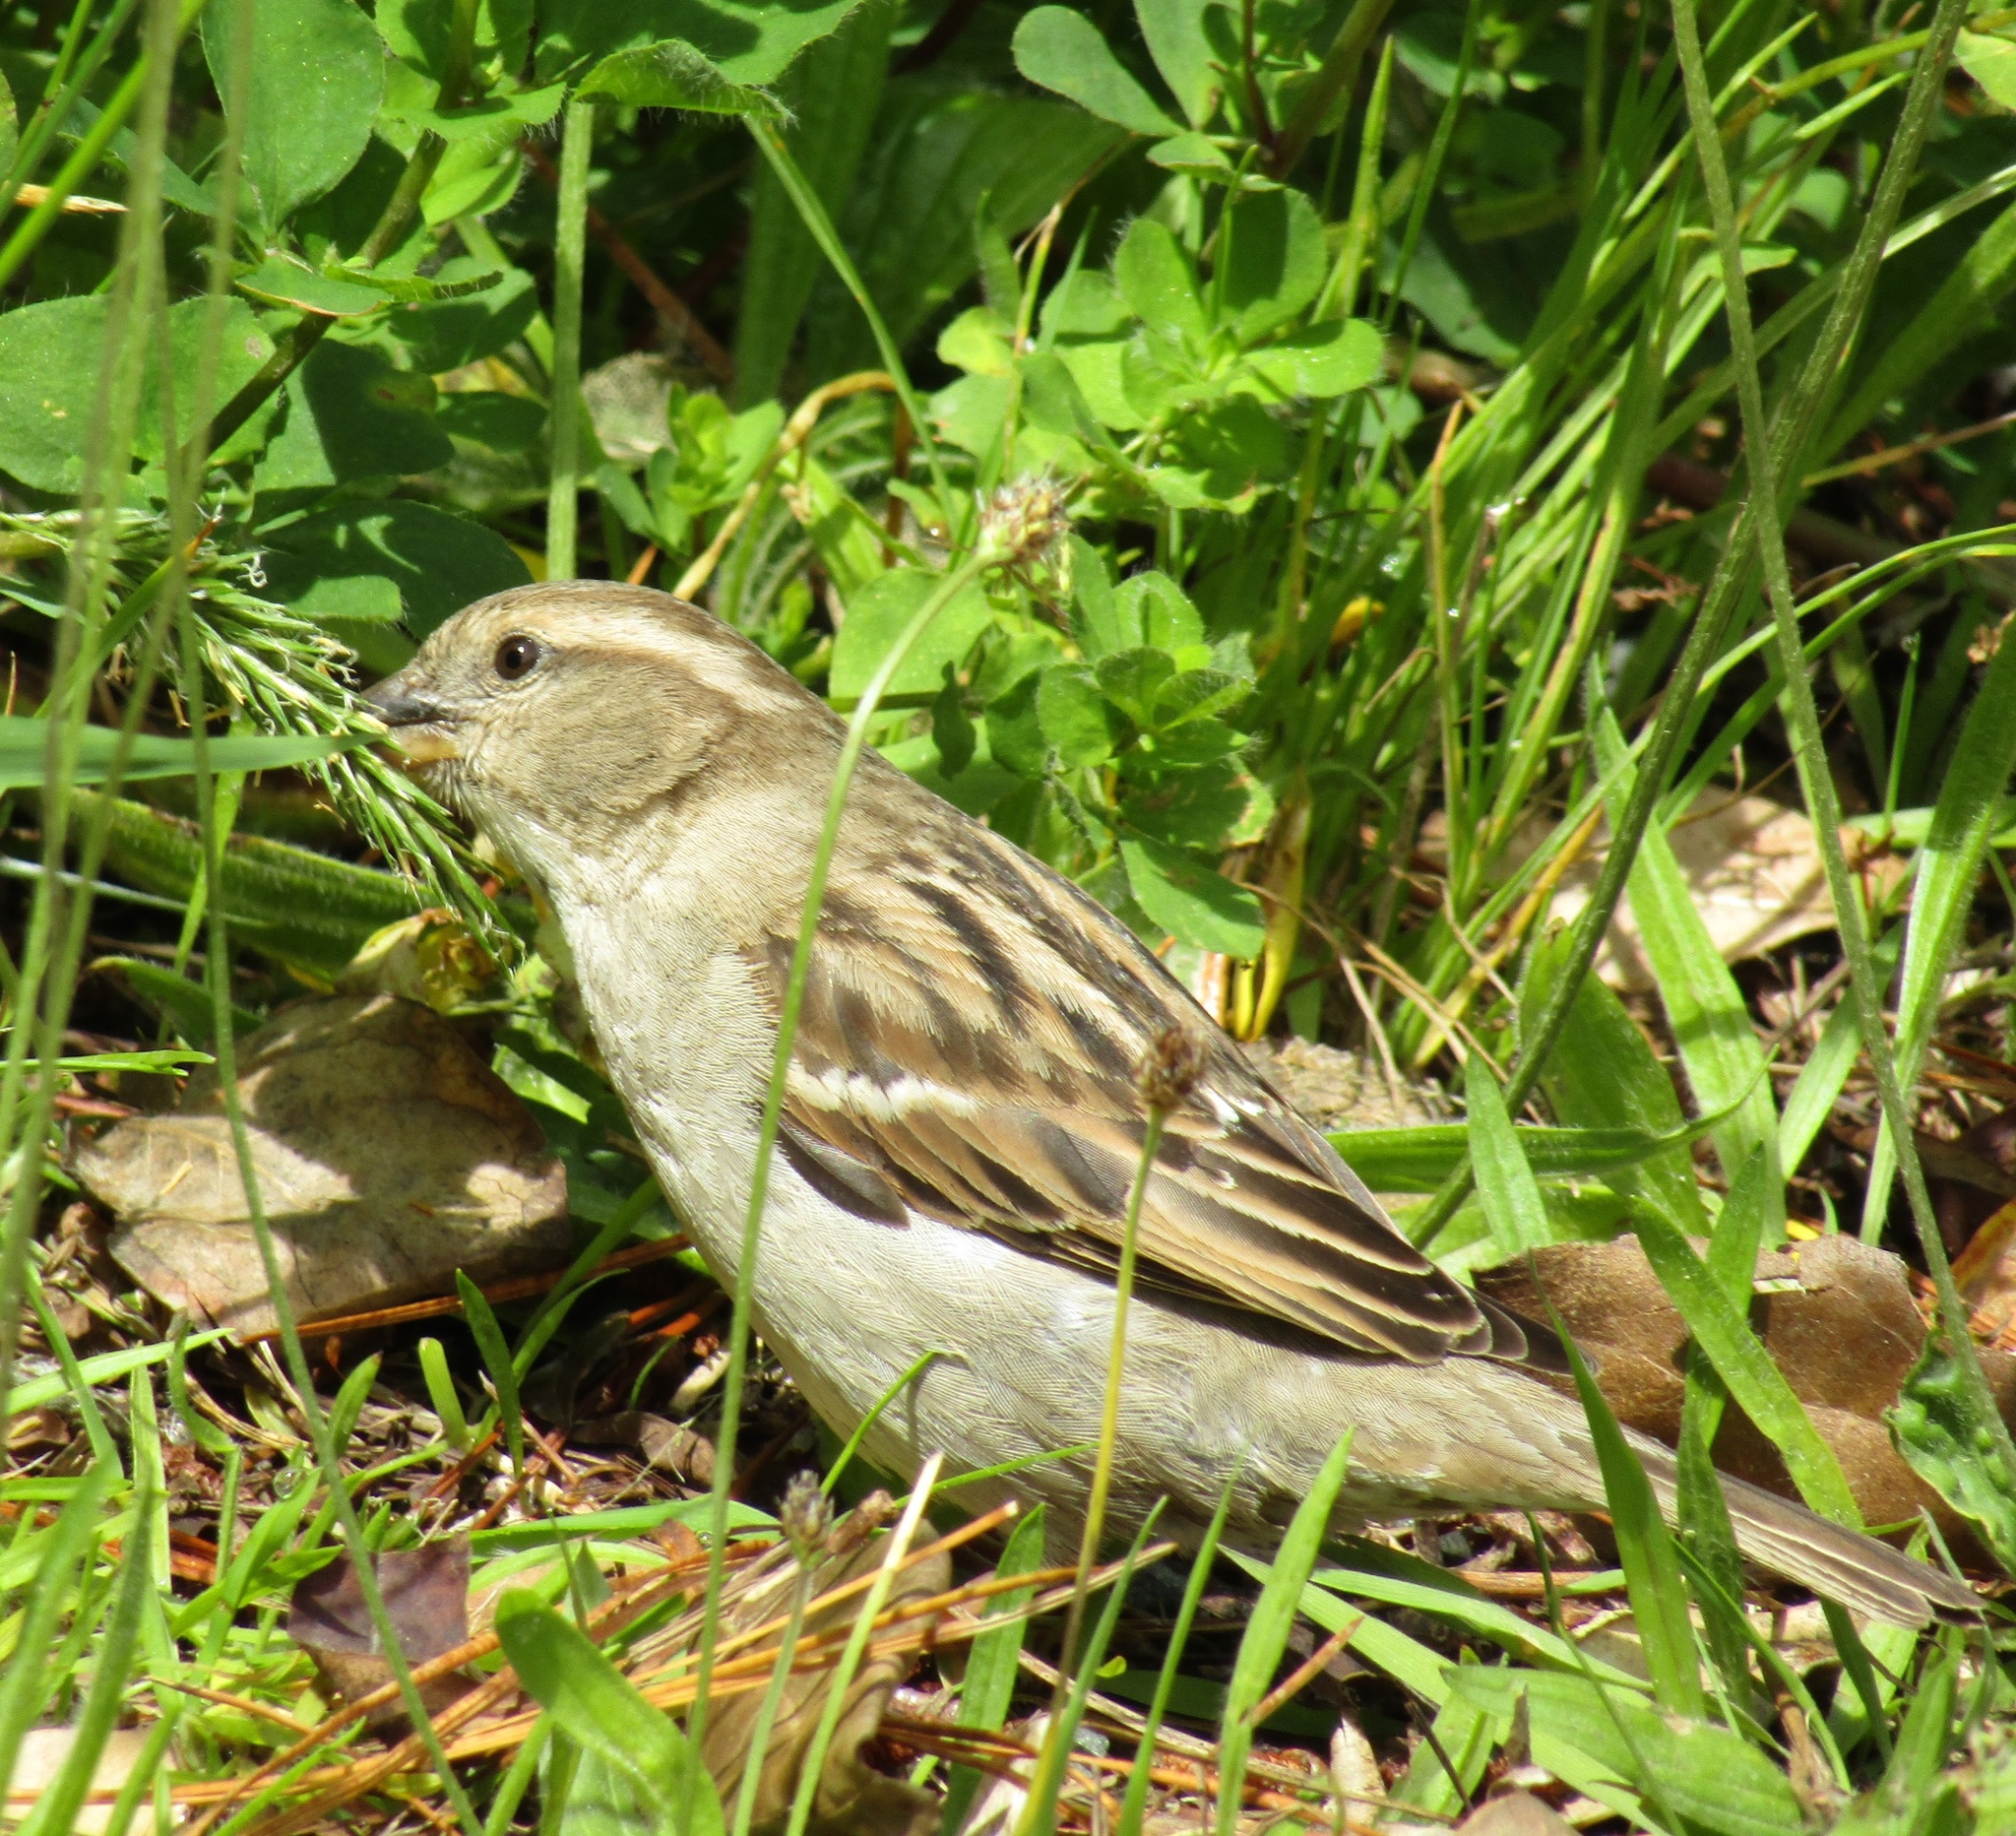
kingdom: Animalia
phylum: Chordata
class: Aves
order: Passeriformes
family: Passeridae
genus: Passer
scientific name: Passer domesticus
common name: House sparrow
